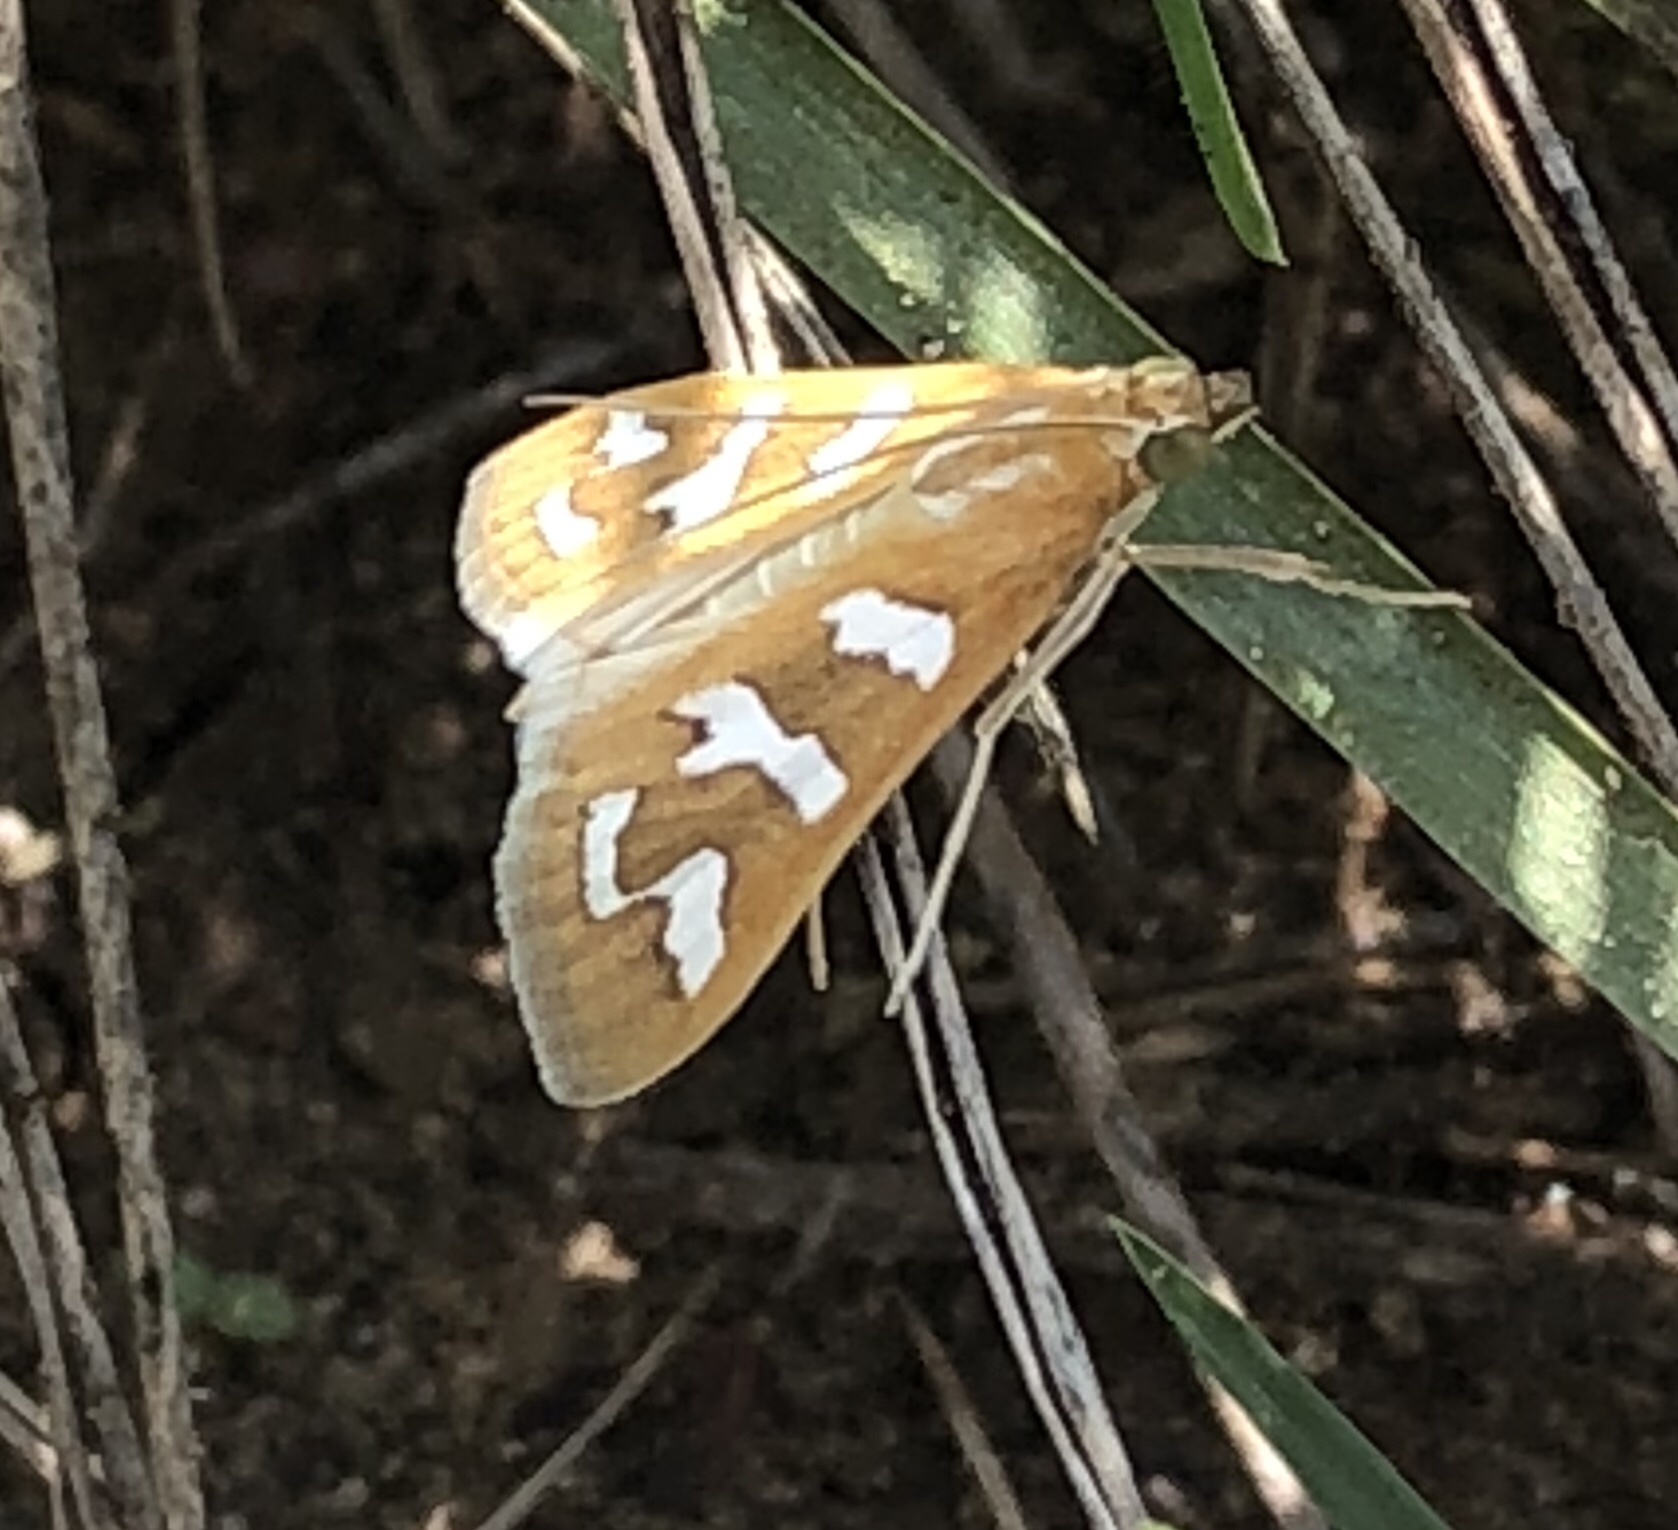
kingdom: Animalia
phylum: Arthropoda
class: Insecta
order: Lepidoptera
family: Crambidae
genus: Diastictis
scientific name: Diastictis fracturalis
